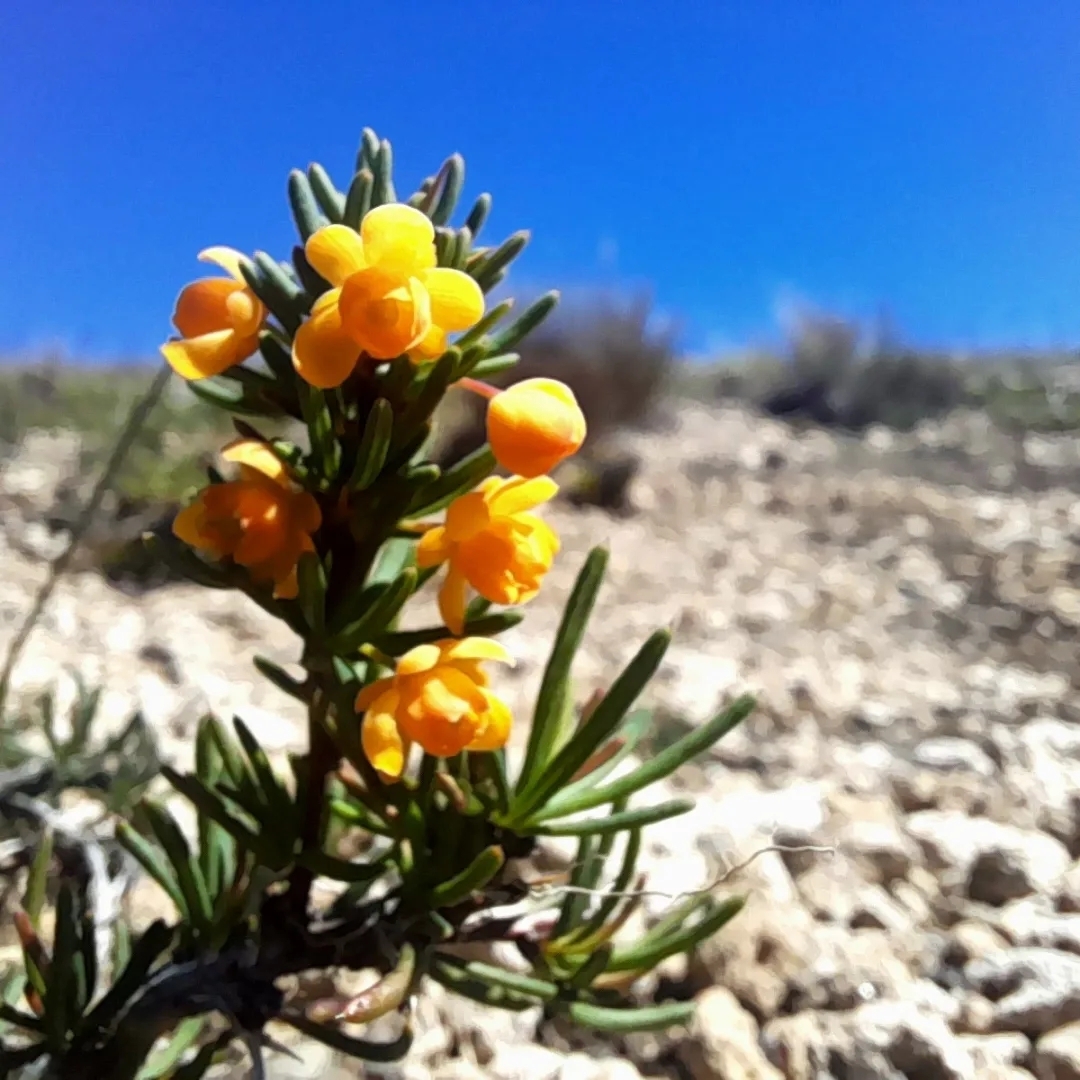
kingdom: Plantae
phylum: Tracheophyta
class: Magnoliopsida
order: Ranunculales
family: Berberidaceae
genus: Berberis
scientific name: Berberis empetrifolia
